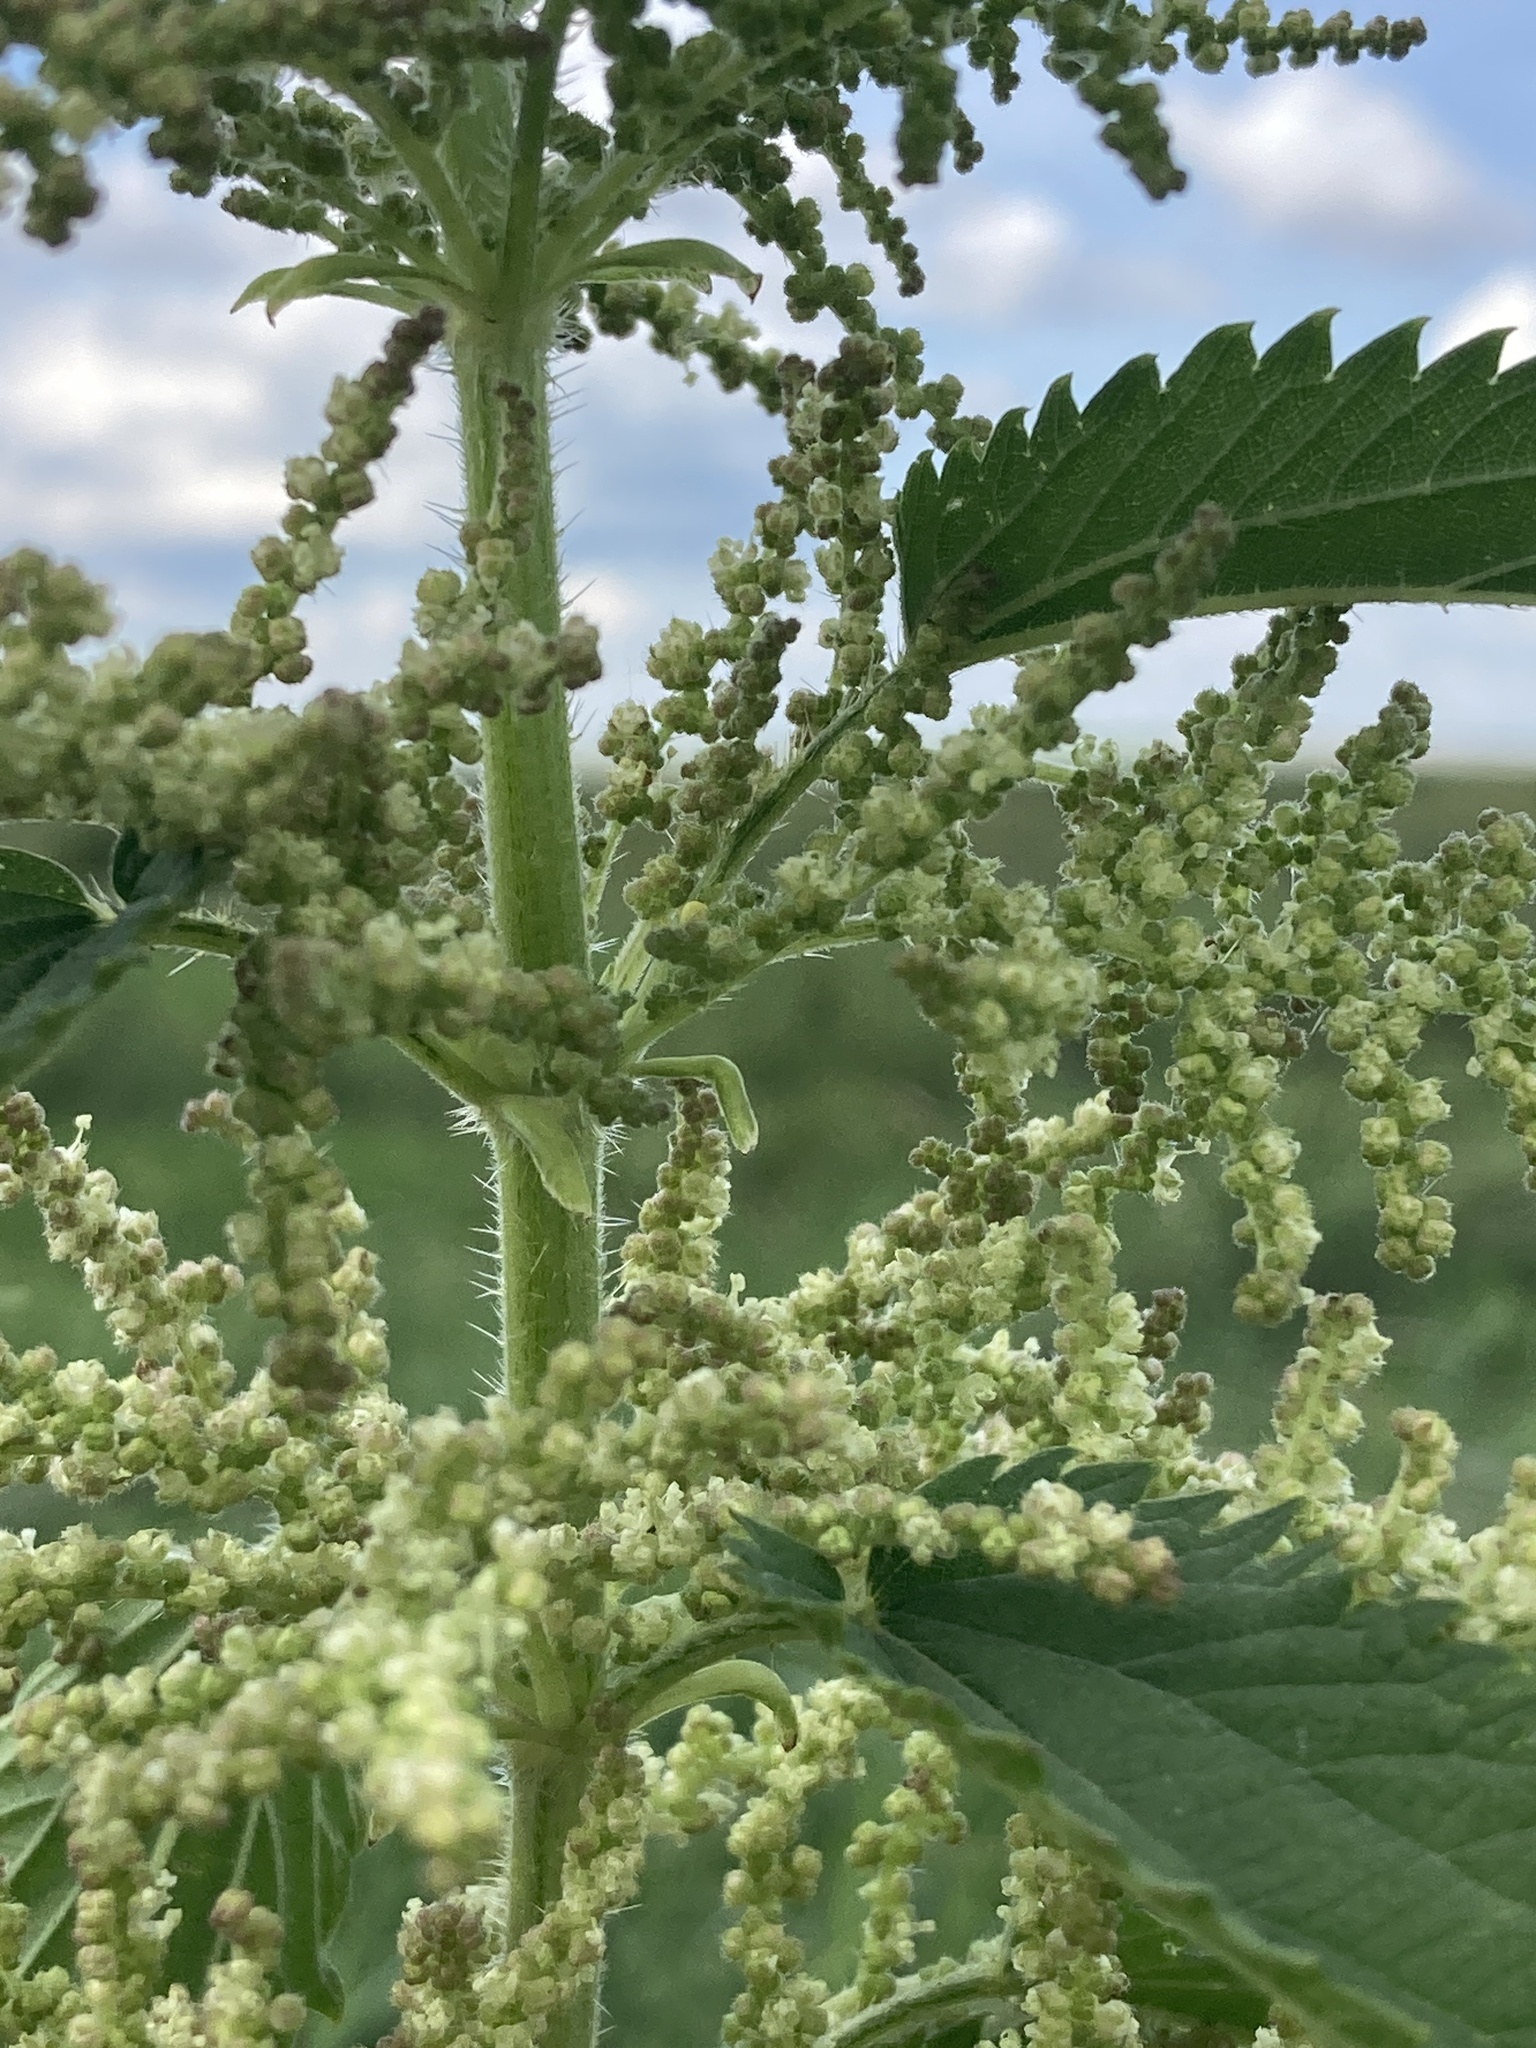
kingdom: Plantae
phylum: Tracheophyta
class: Magnoliopsida
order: Rosales
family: Urticaceae
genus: Urtica
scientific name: Urtica dioica
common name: Common nettle
